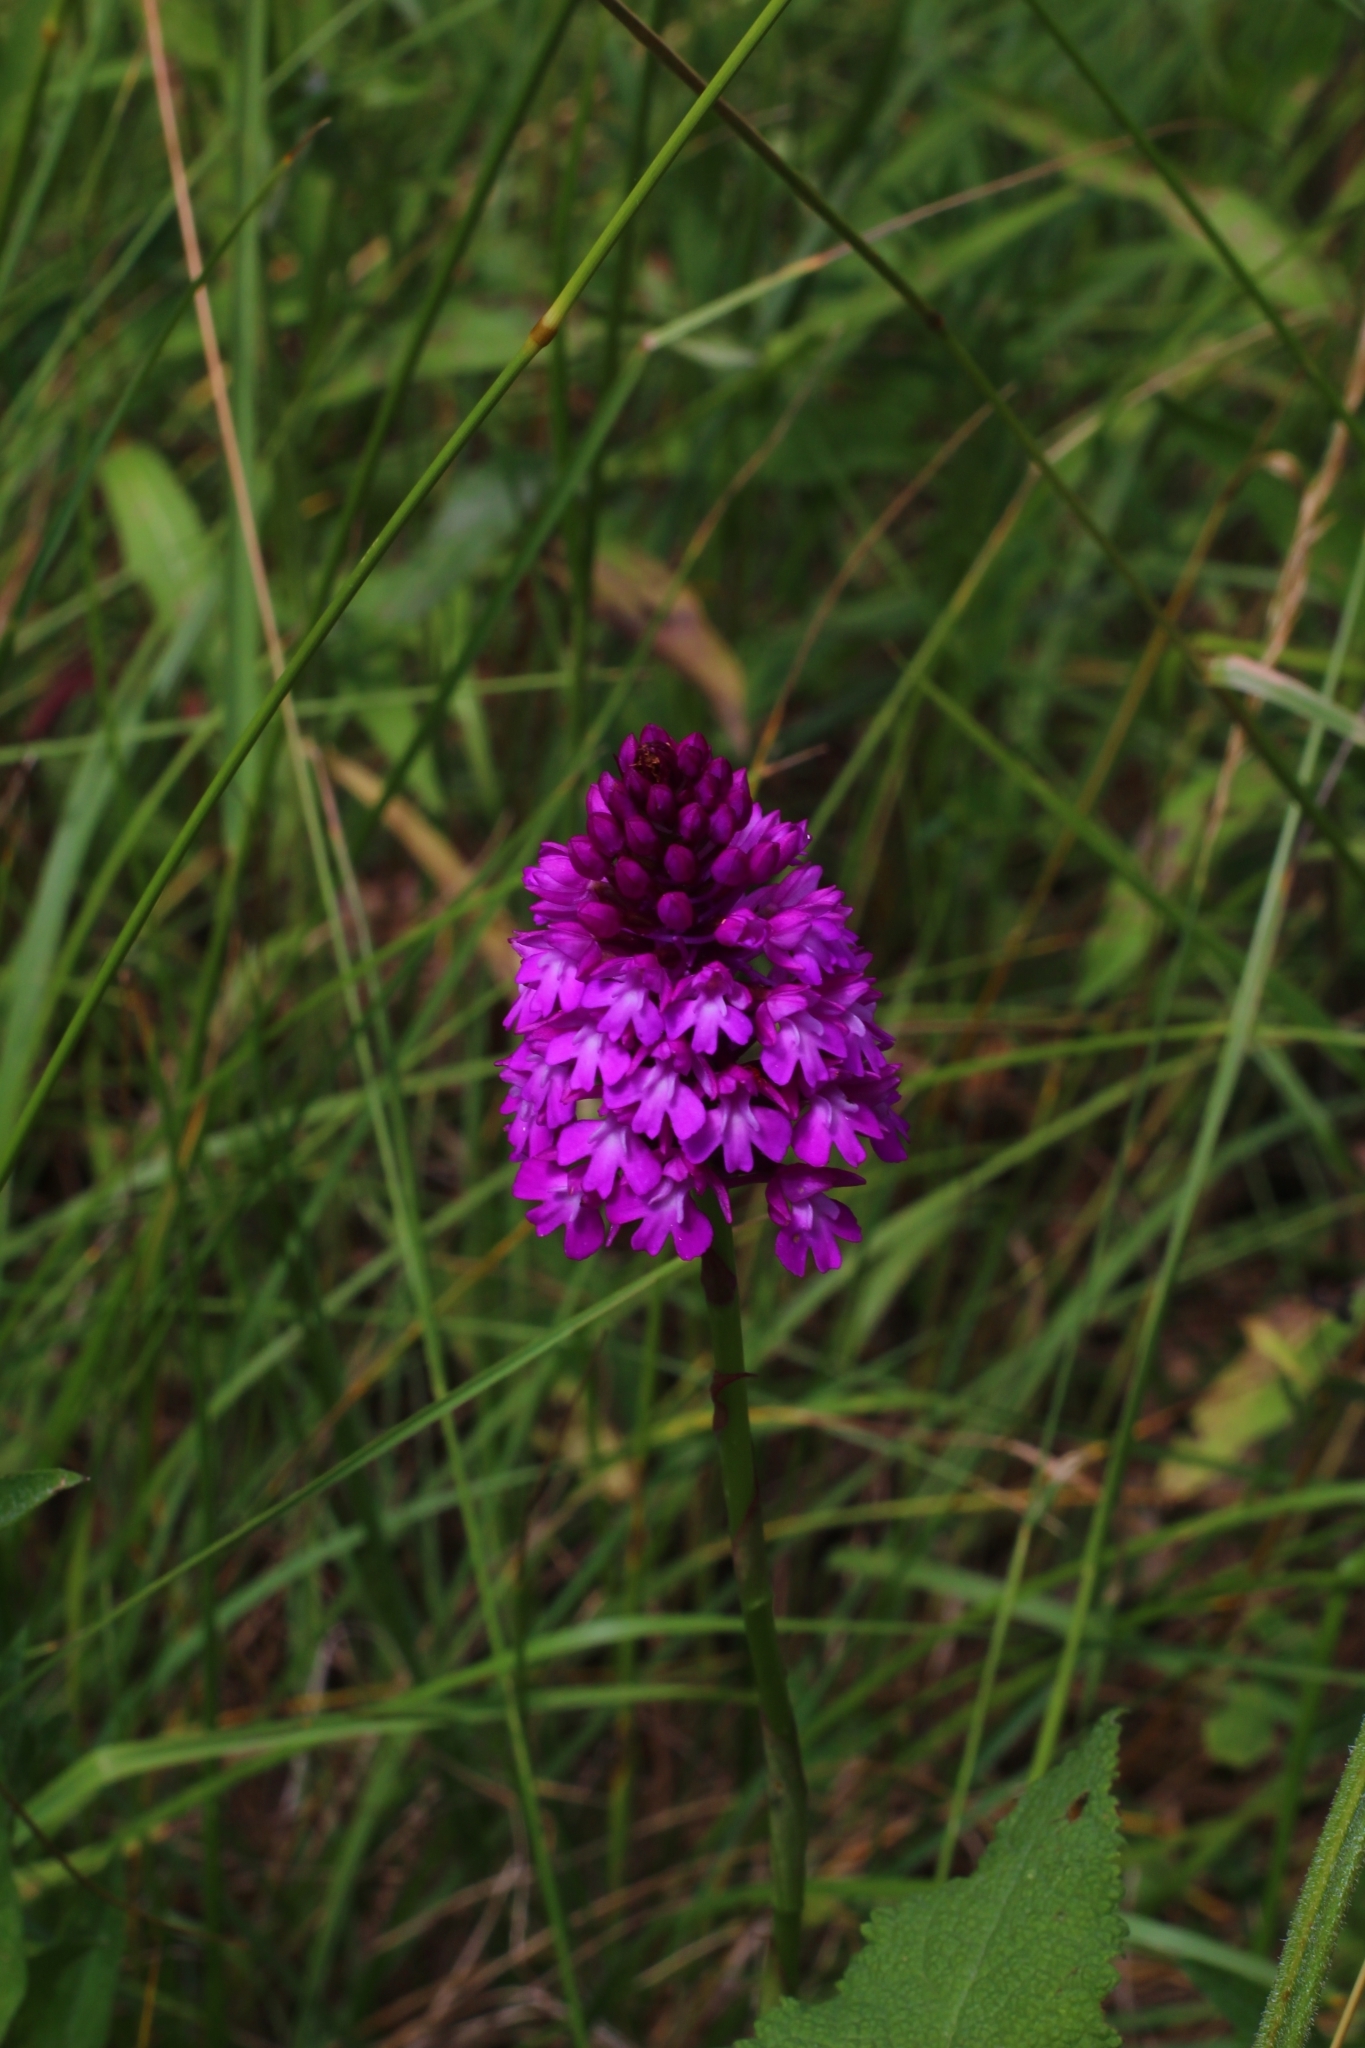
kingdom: Plantae
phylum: Tracheophyta
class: Liliopsida
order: Asparagales
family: Orchidaceae
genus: Anacamptis
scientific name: Anacamptis pyramidalis
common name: Pyramidal orchid
